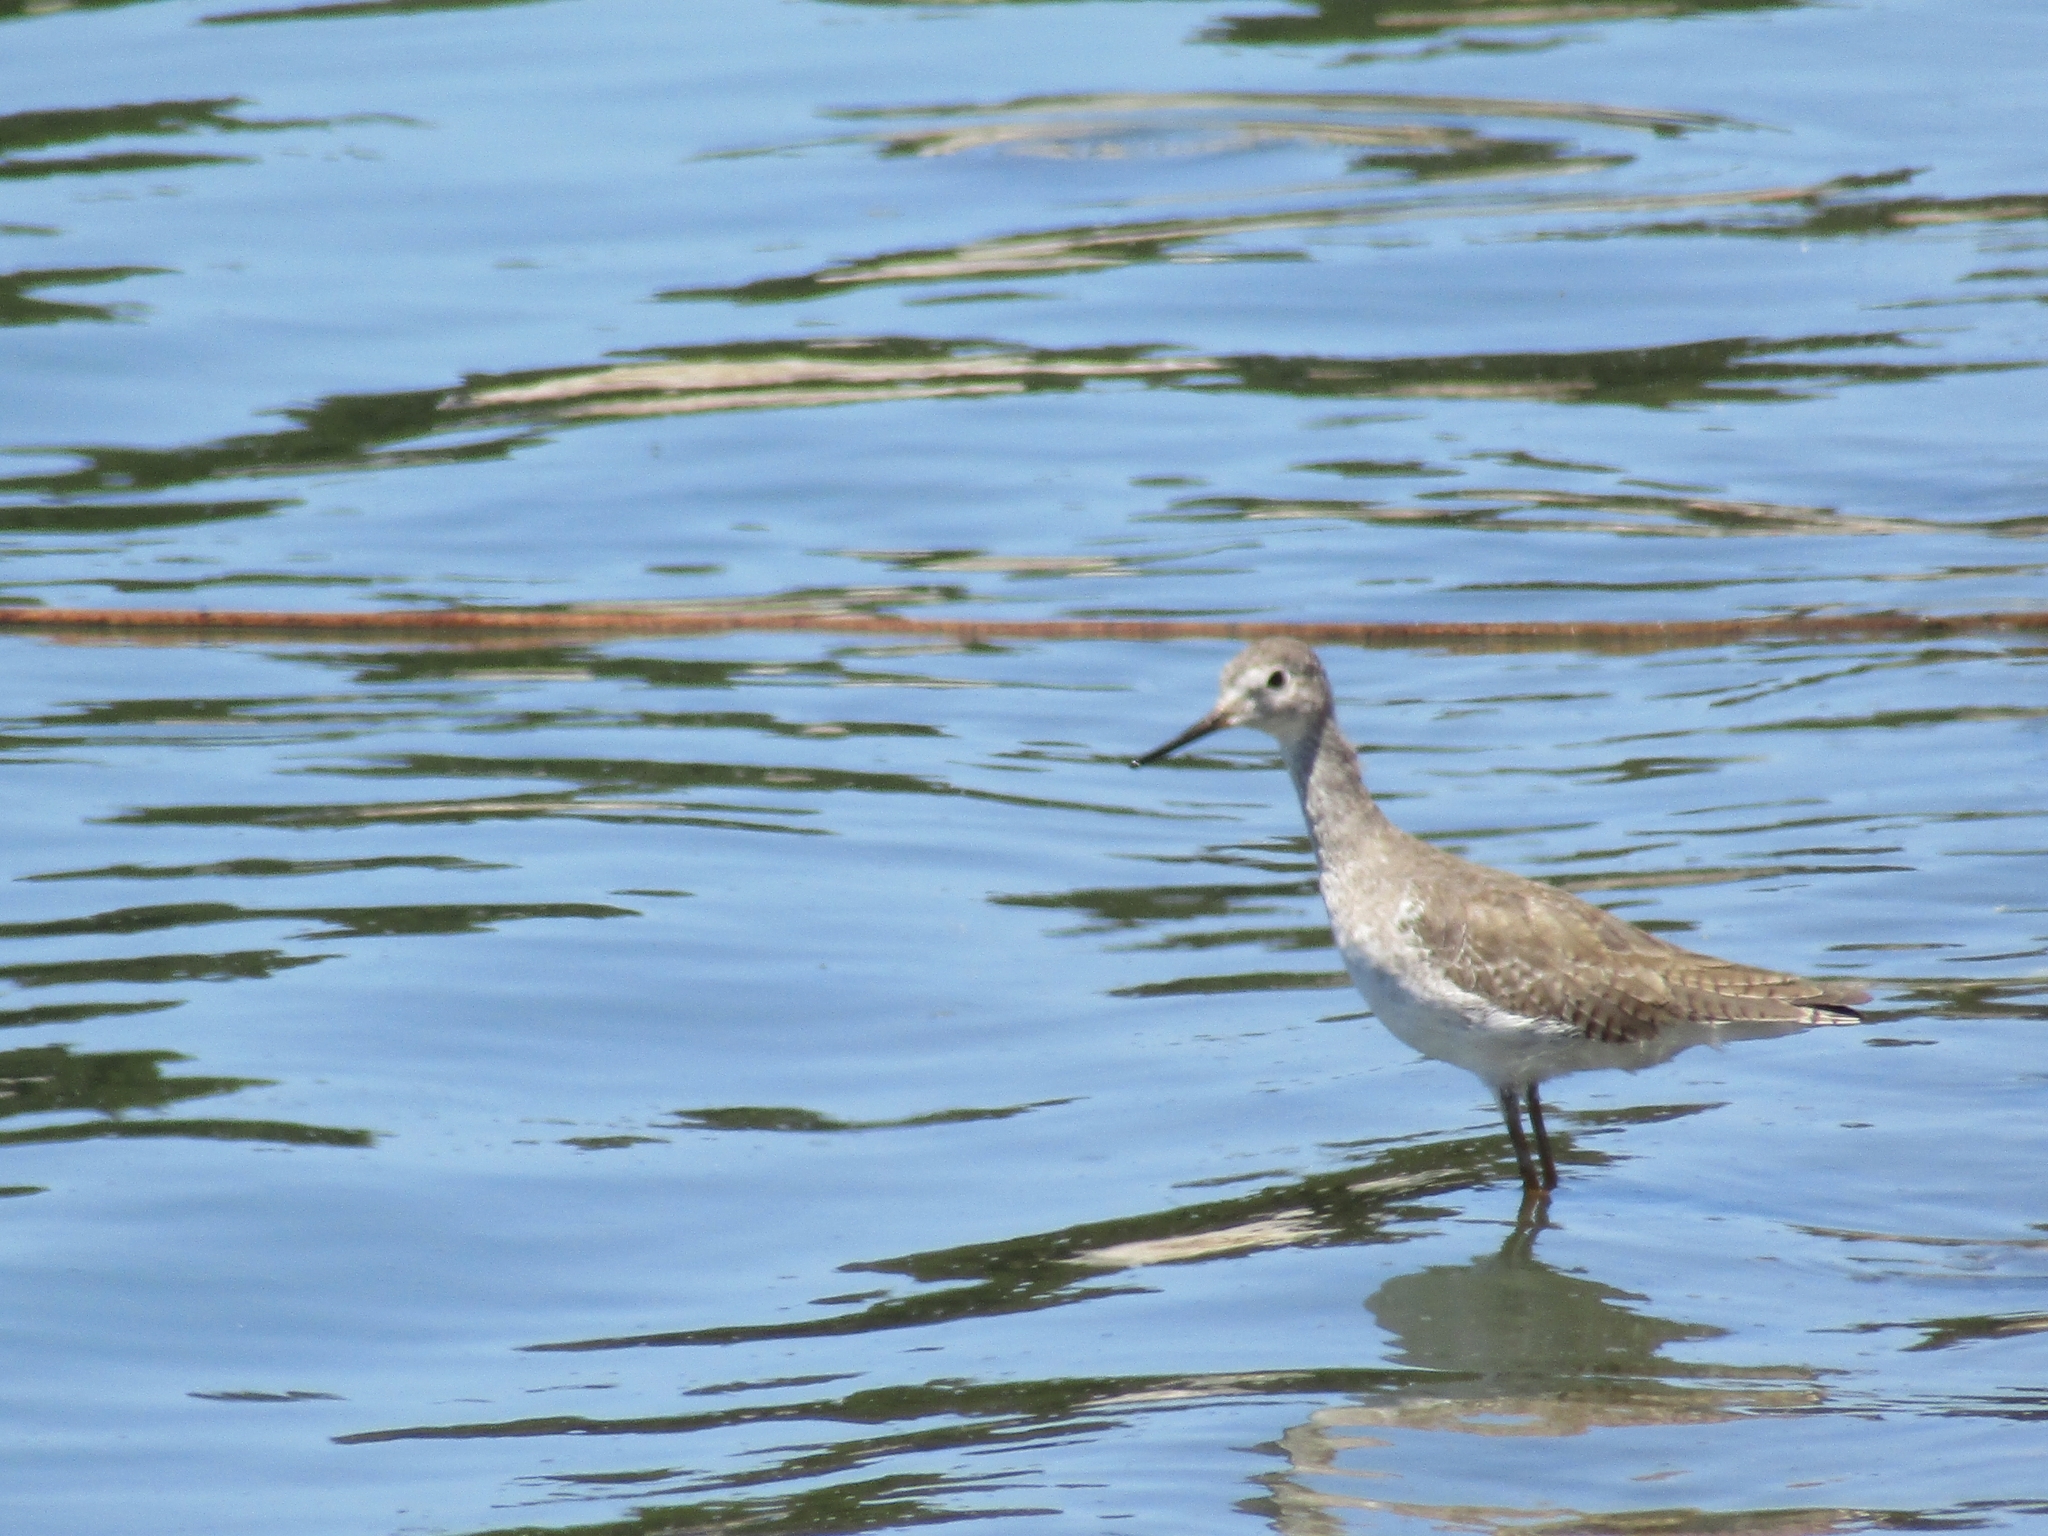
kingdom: Animalia
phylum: Chordata
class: Aves
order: Charadriiformes
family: Scolopacidae
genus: Tringa
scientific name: Tringa flavipes
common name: Lesser yellowlegs
